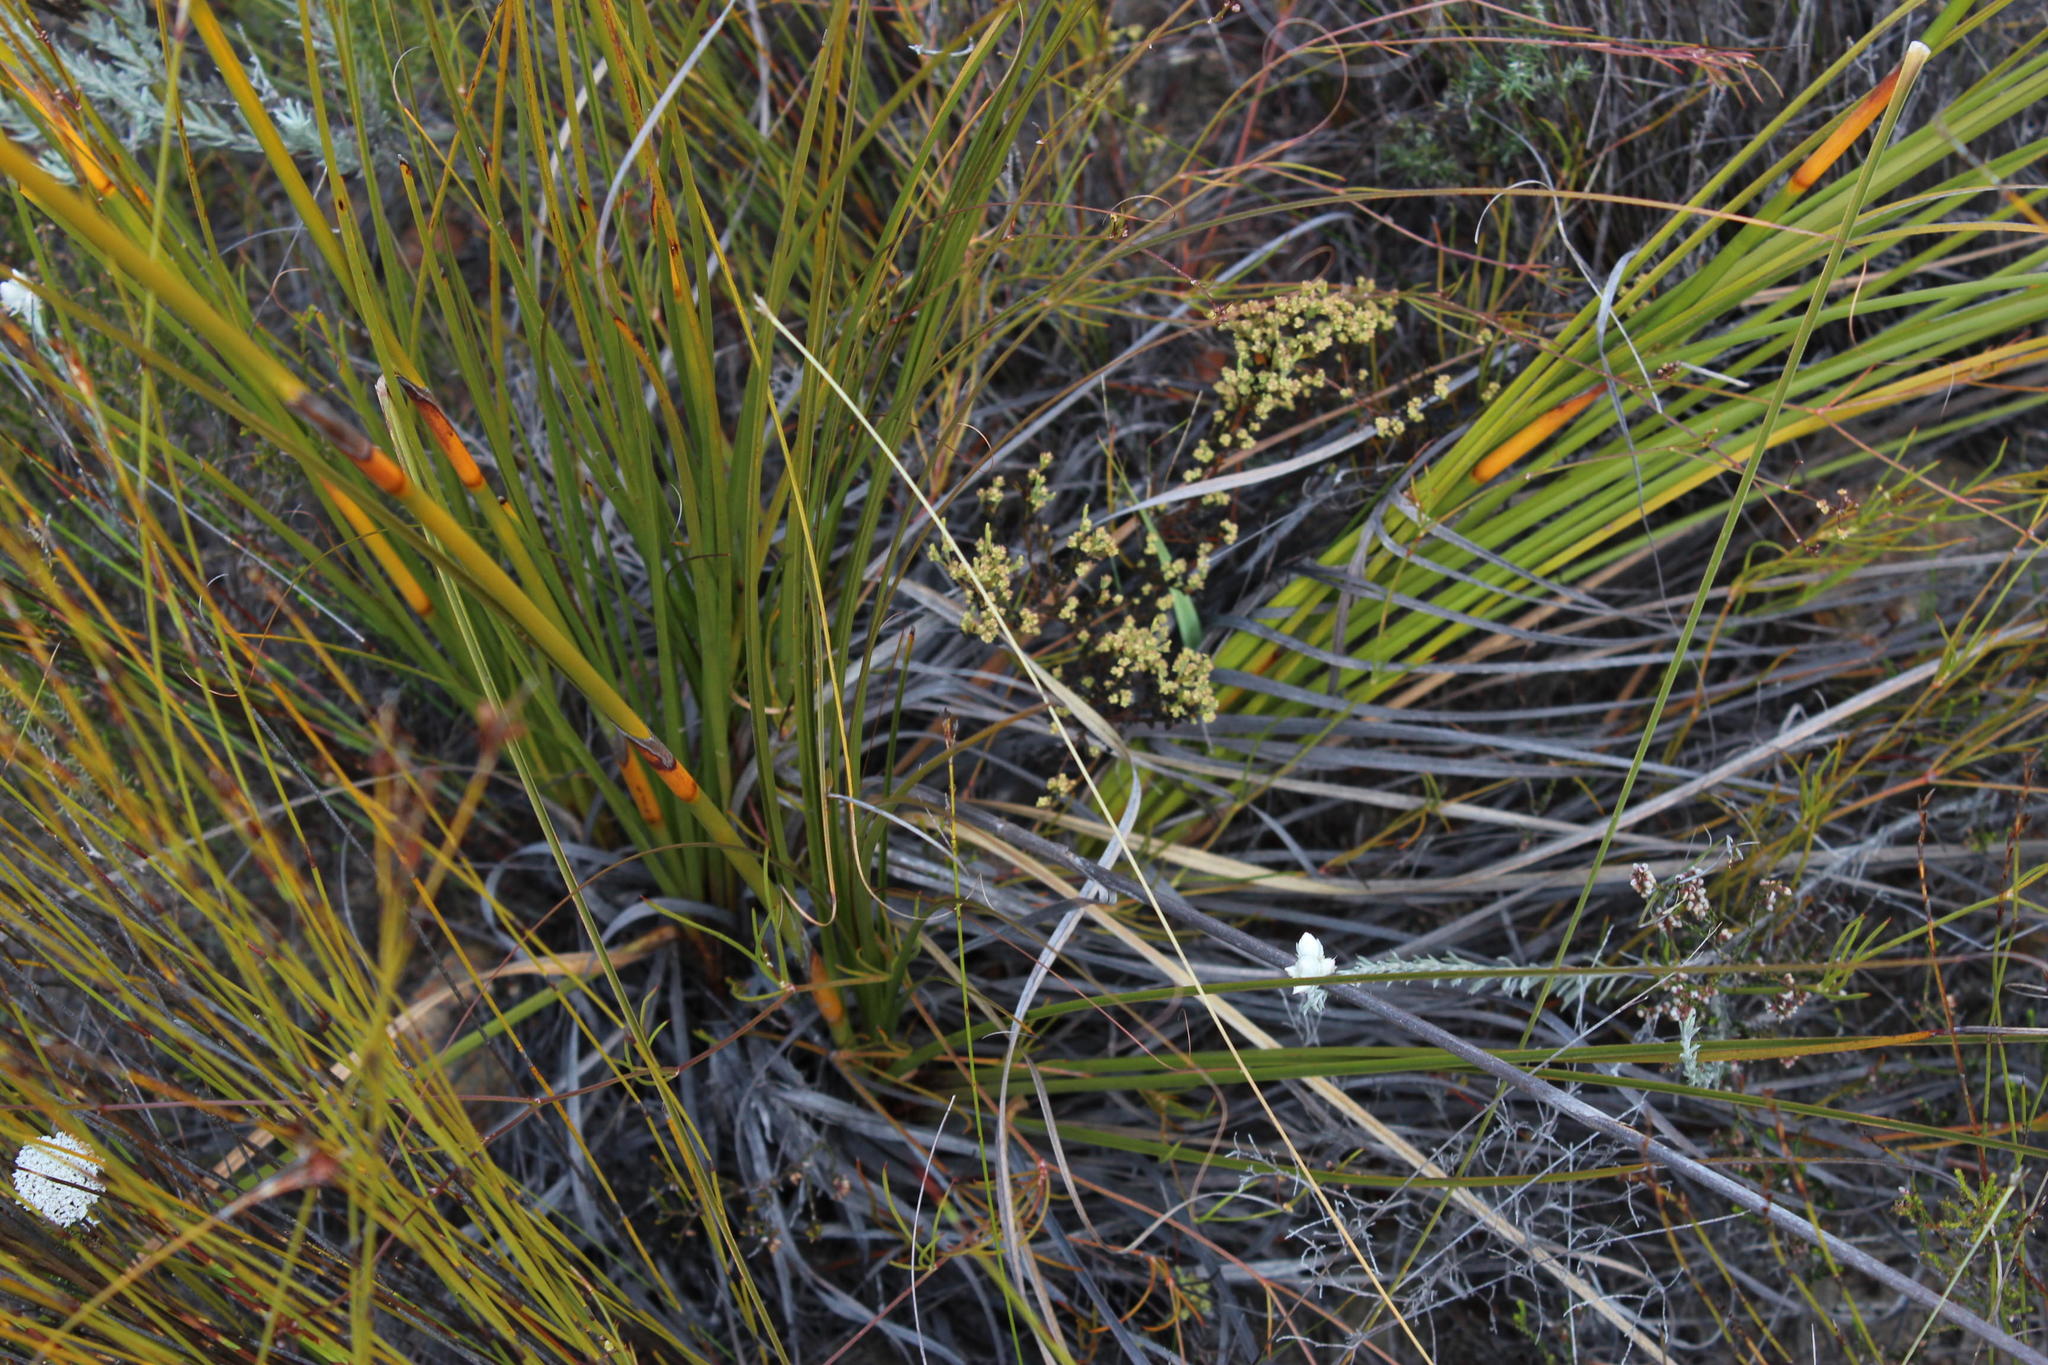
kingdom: Plantae
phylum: Tracheophyta
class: Liliopsida
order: Poales
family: Cyperaceae
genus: Tetraria
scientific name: Tetraria bromoides
